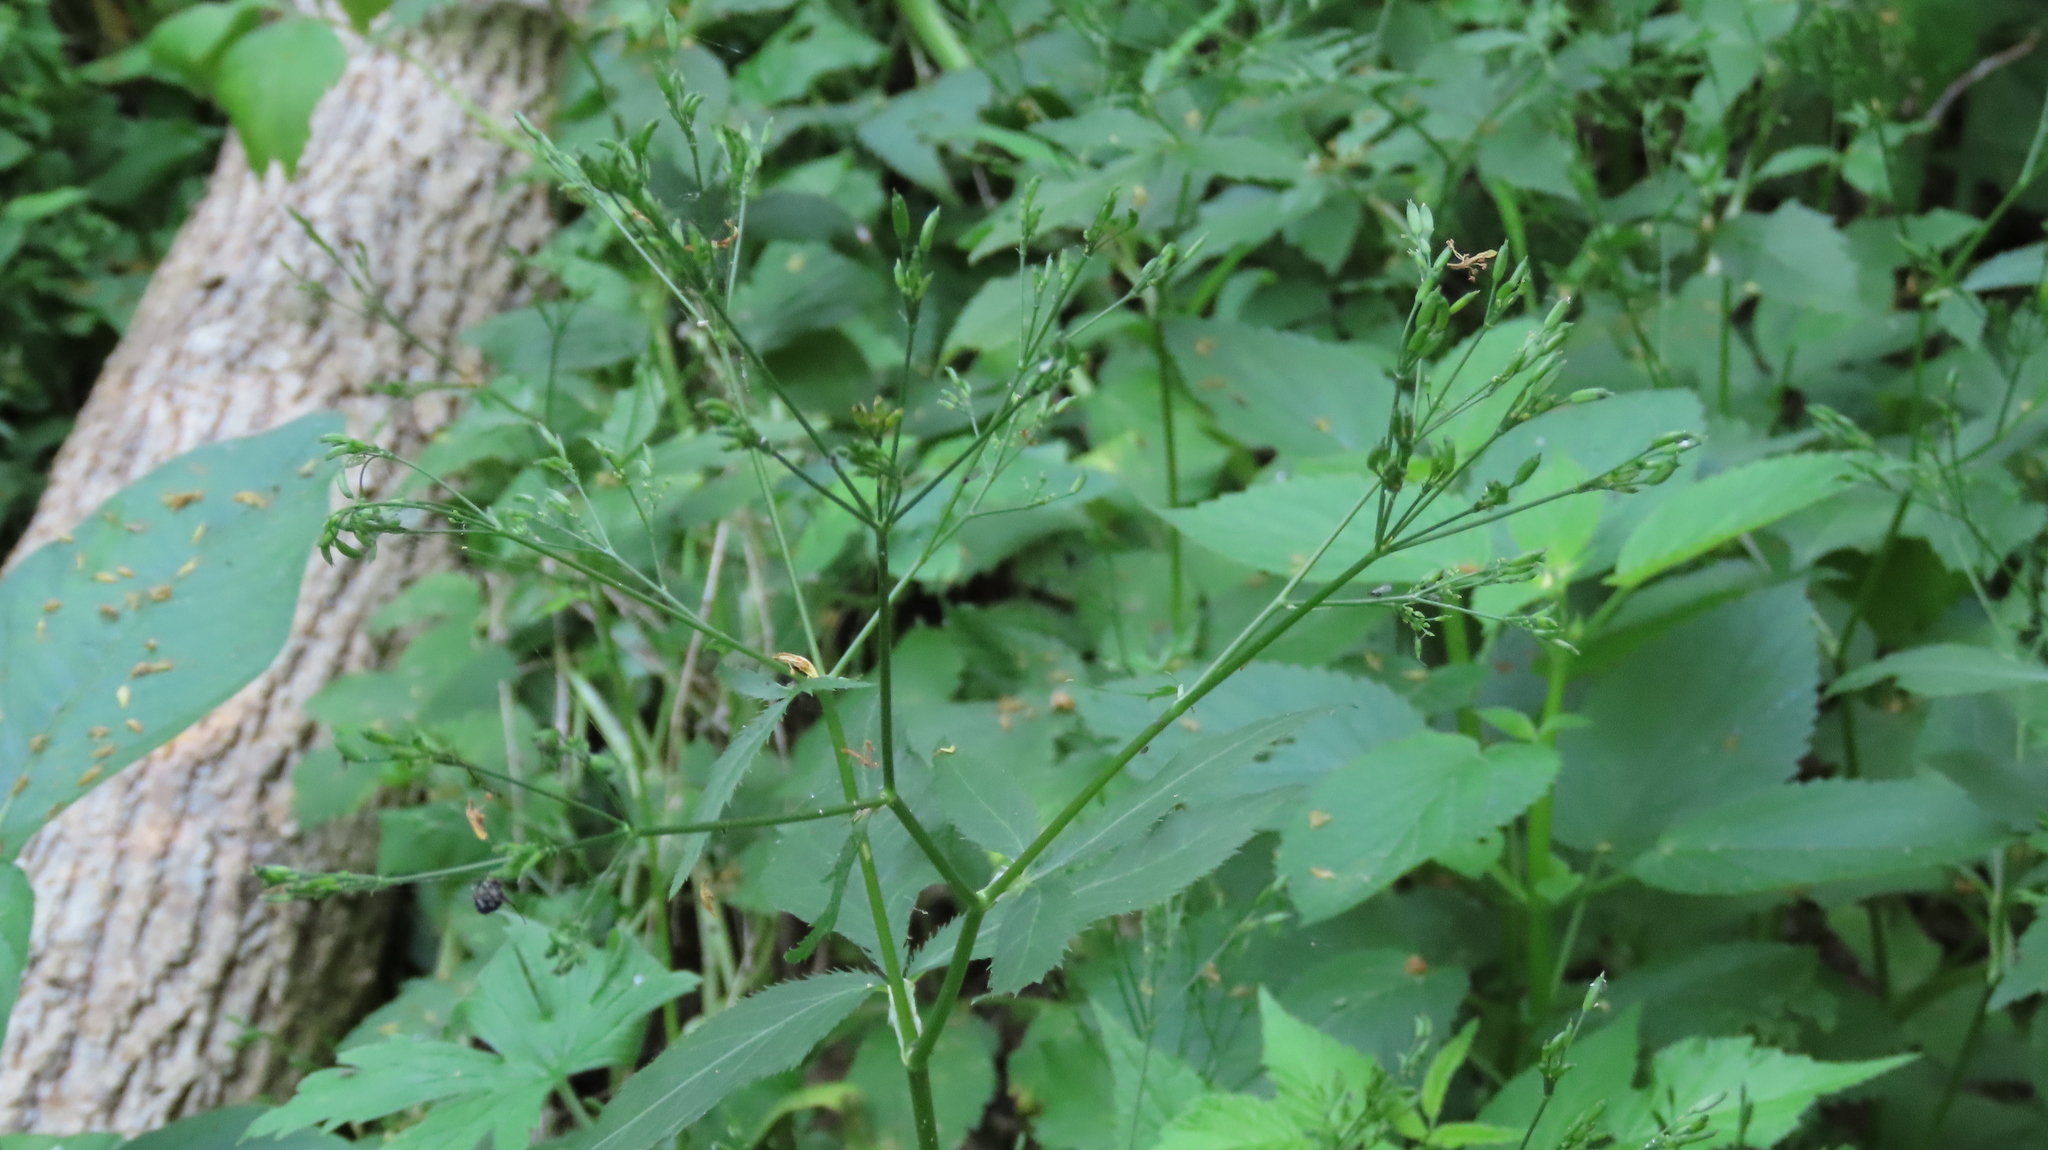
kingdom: Plantae
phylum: Tracheophyta
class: Magnoliopsida
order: Apiales
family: Apiaceae
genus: Cryptotaenia
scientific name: Cryptotaenia canadensis
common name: Honewort
